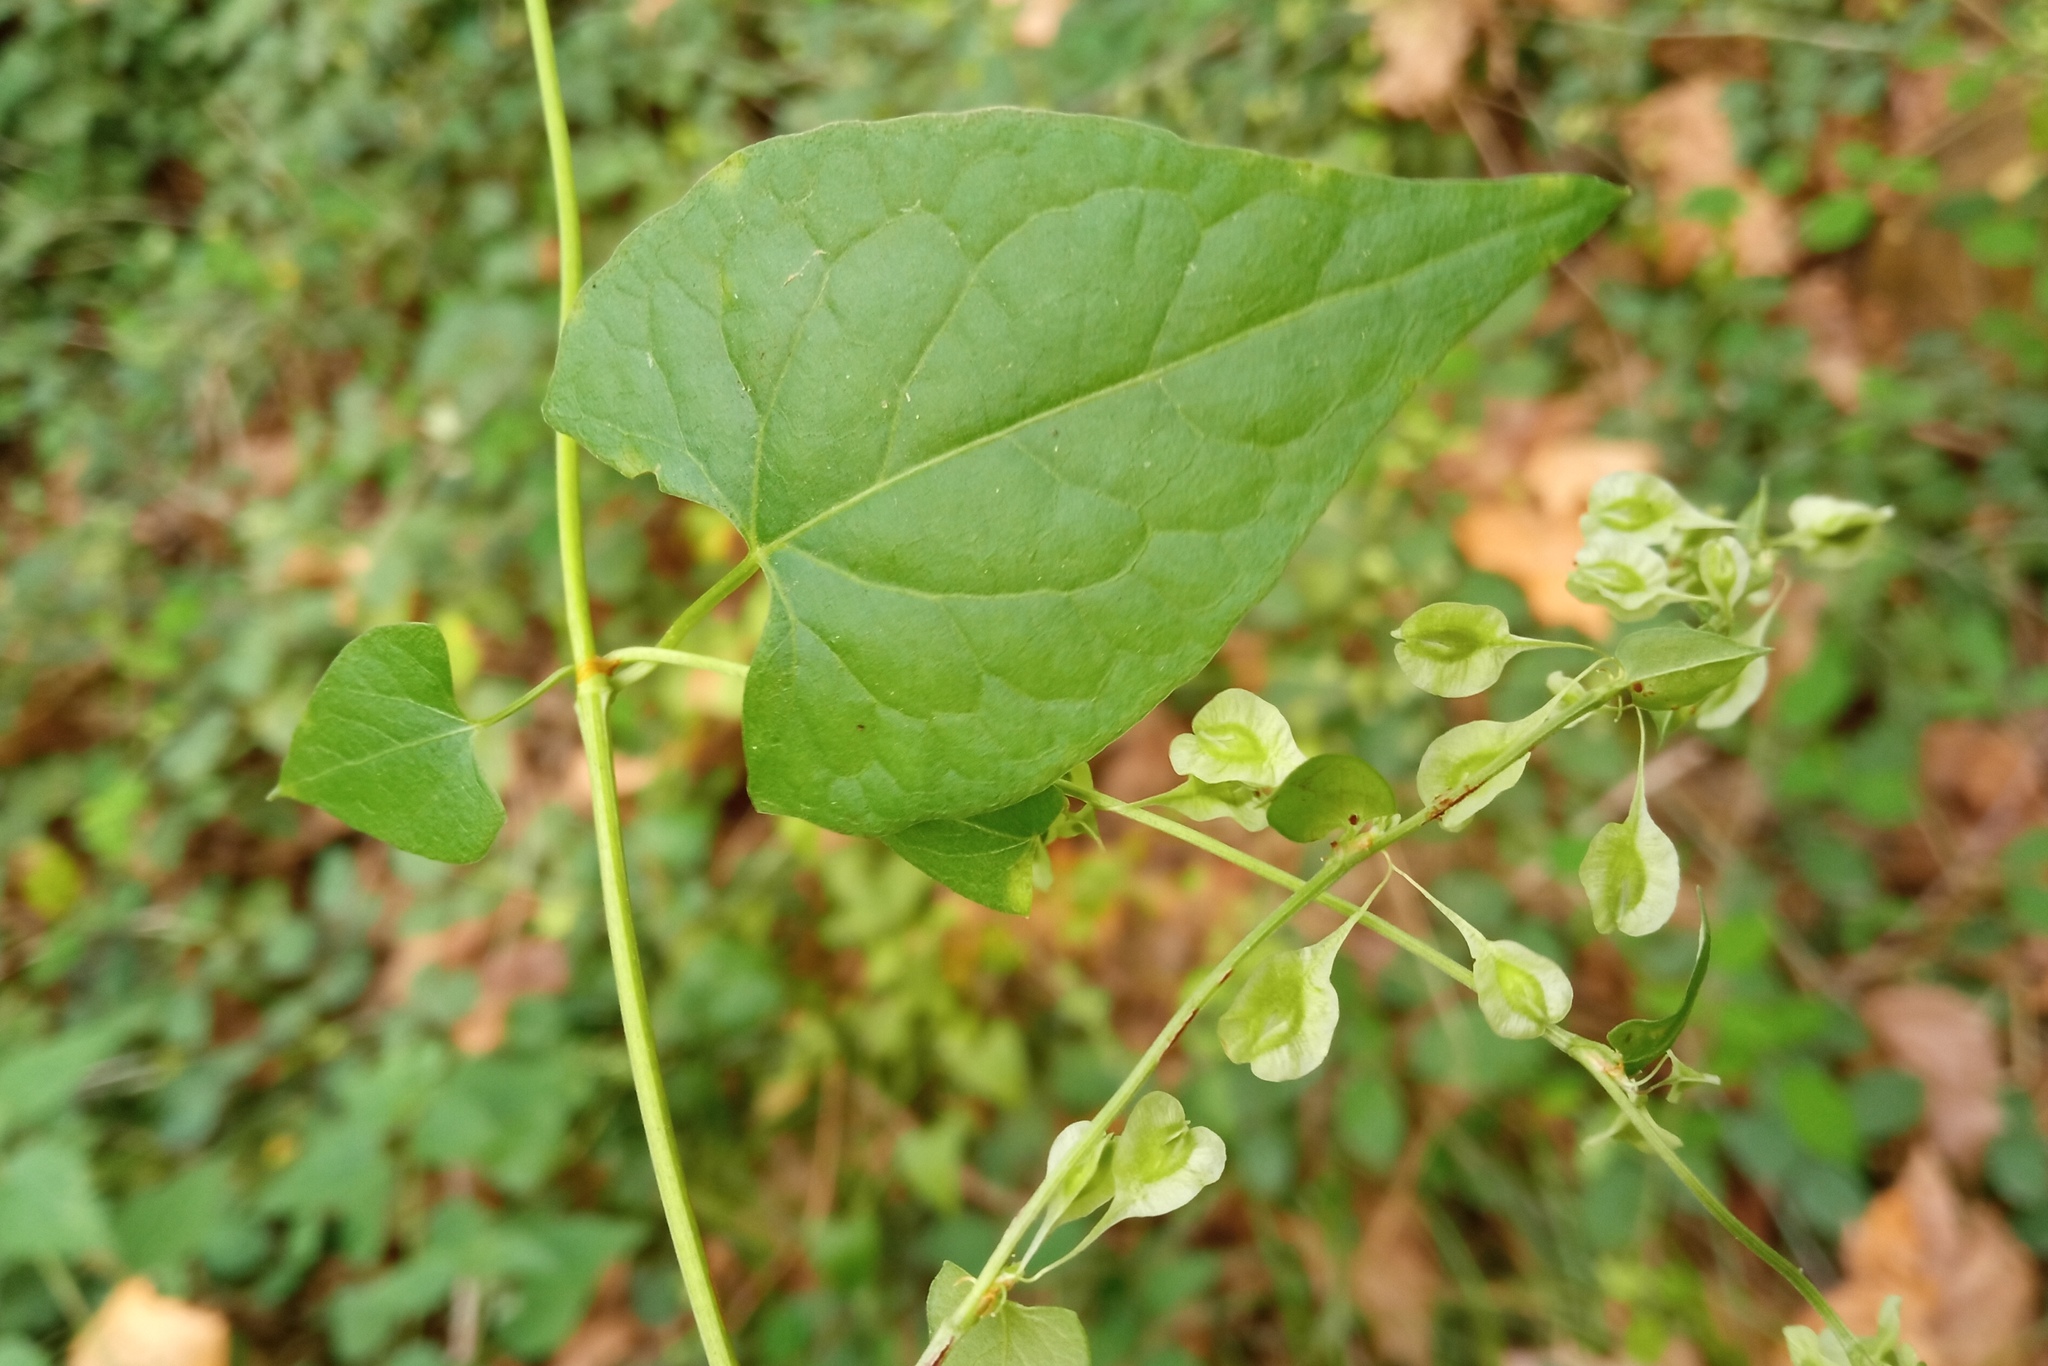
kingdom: Plantae
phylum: Tracheophyta
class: Magnoliopsida
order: Caryophyllales
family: Polygonaceae
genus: Fallopia
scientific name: Fallopia dumetorum
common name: Copse-bindweed
